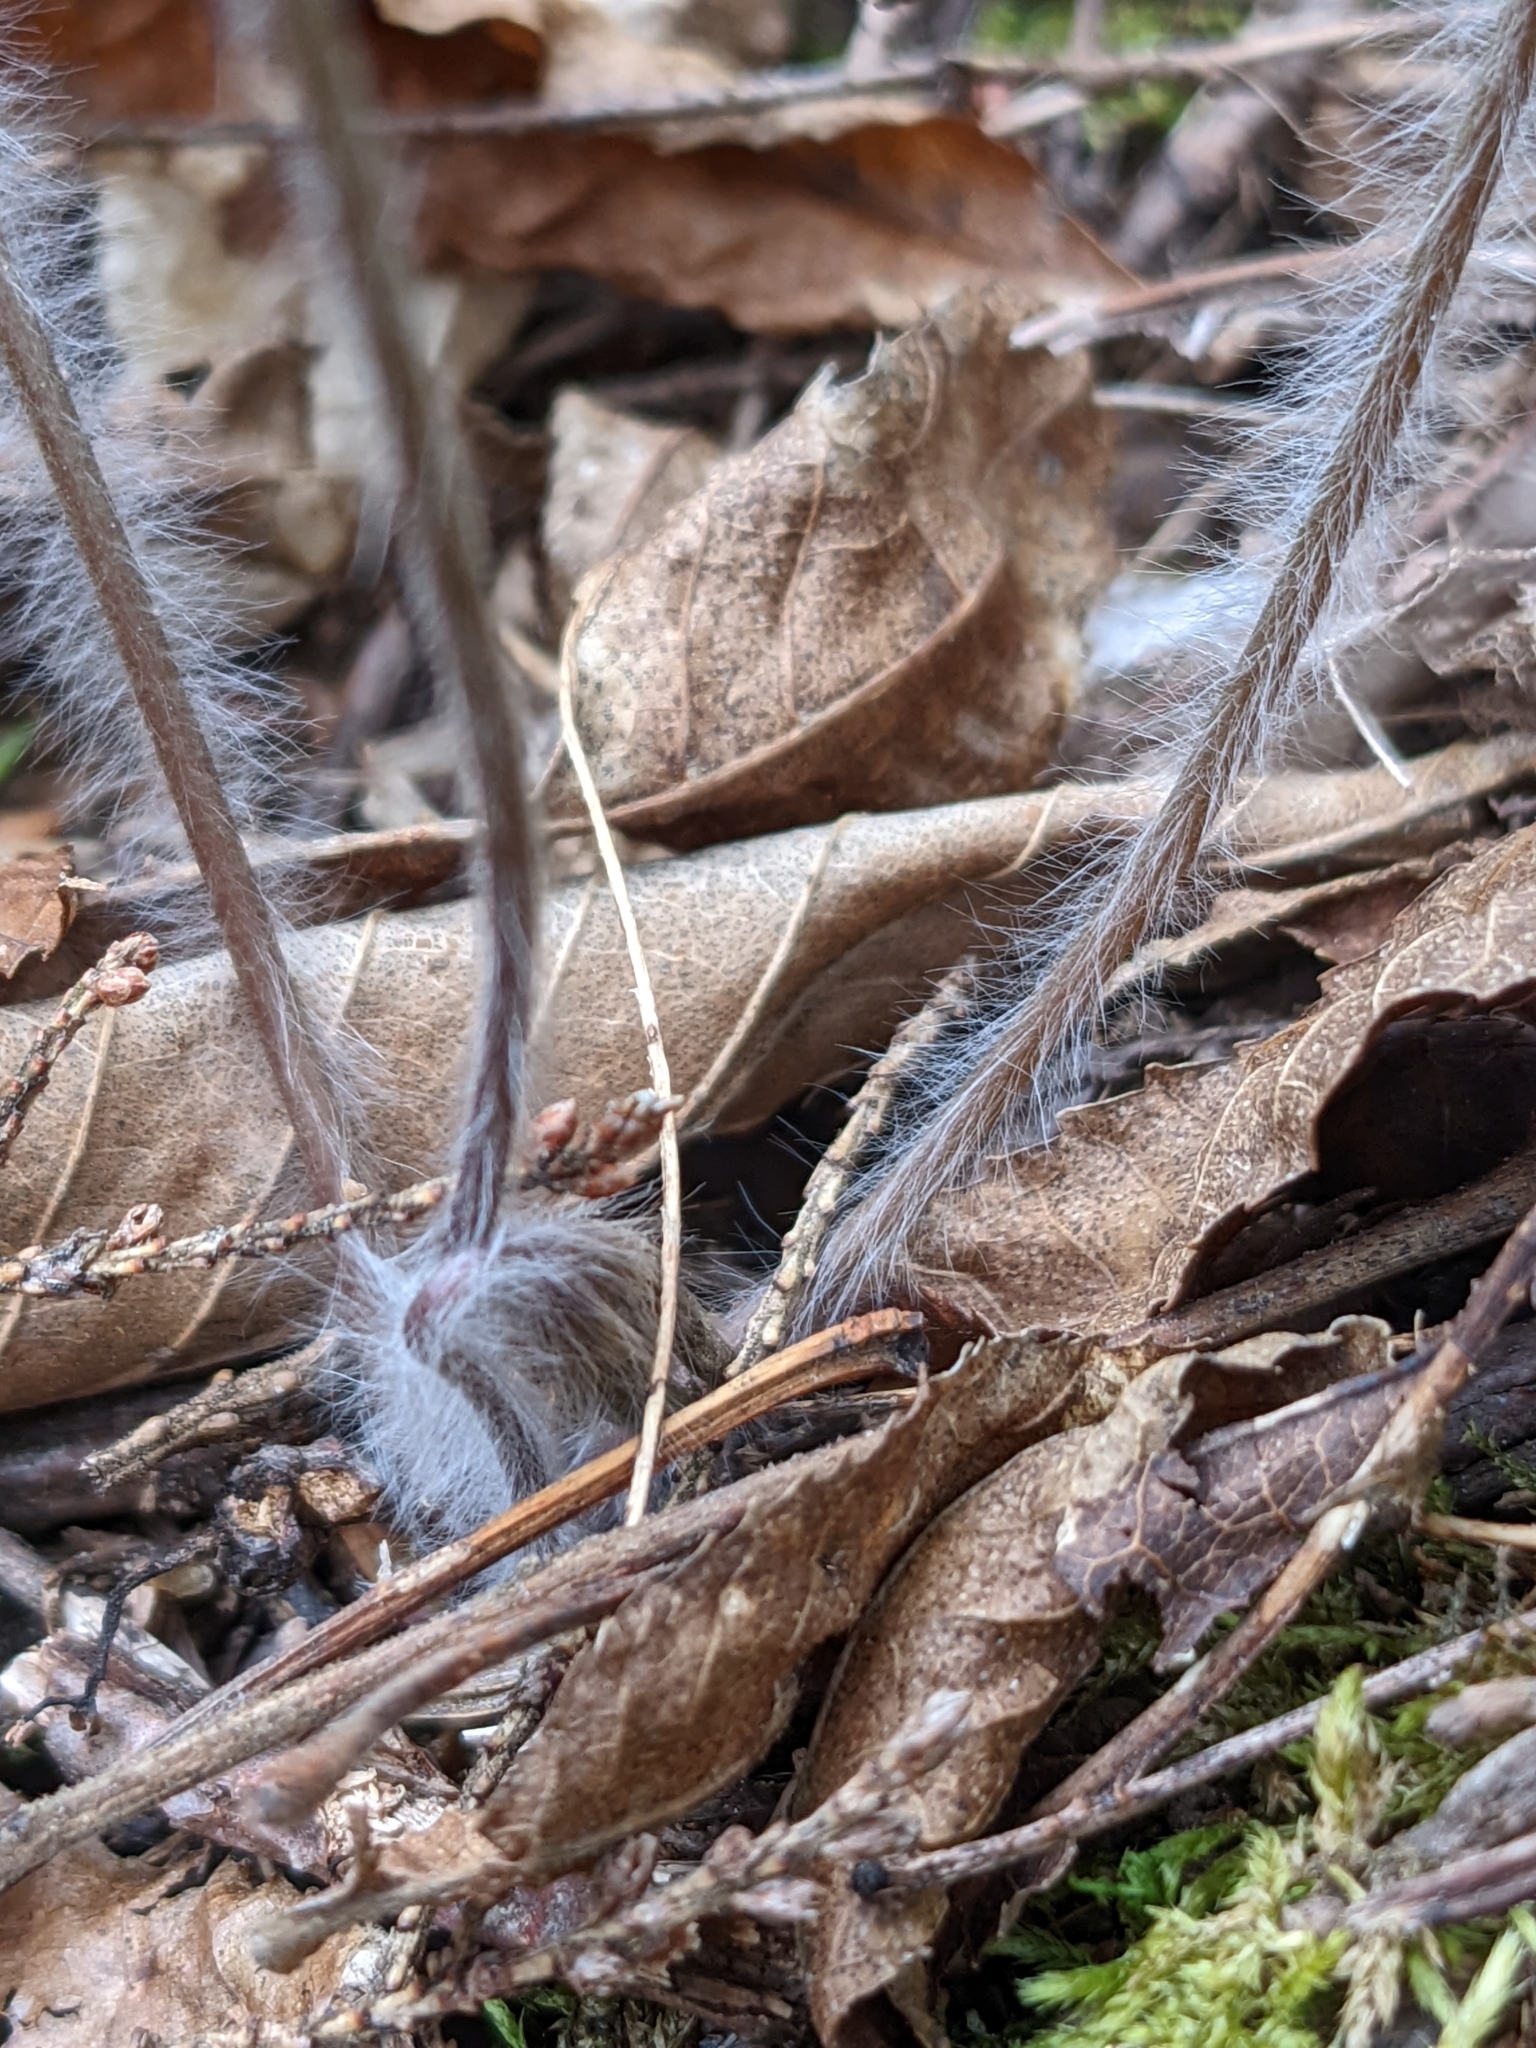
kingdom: Plantae
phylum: Tracheophyta
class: Magnoliopsida
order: Ranunculales
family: Ranunculaceae
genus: Hepatica
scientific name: Hepatica acutiloba
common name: Sharp-lobed hepatica
